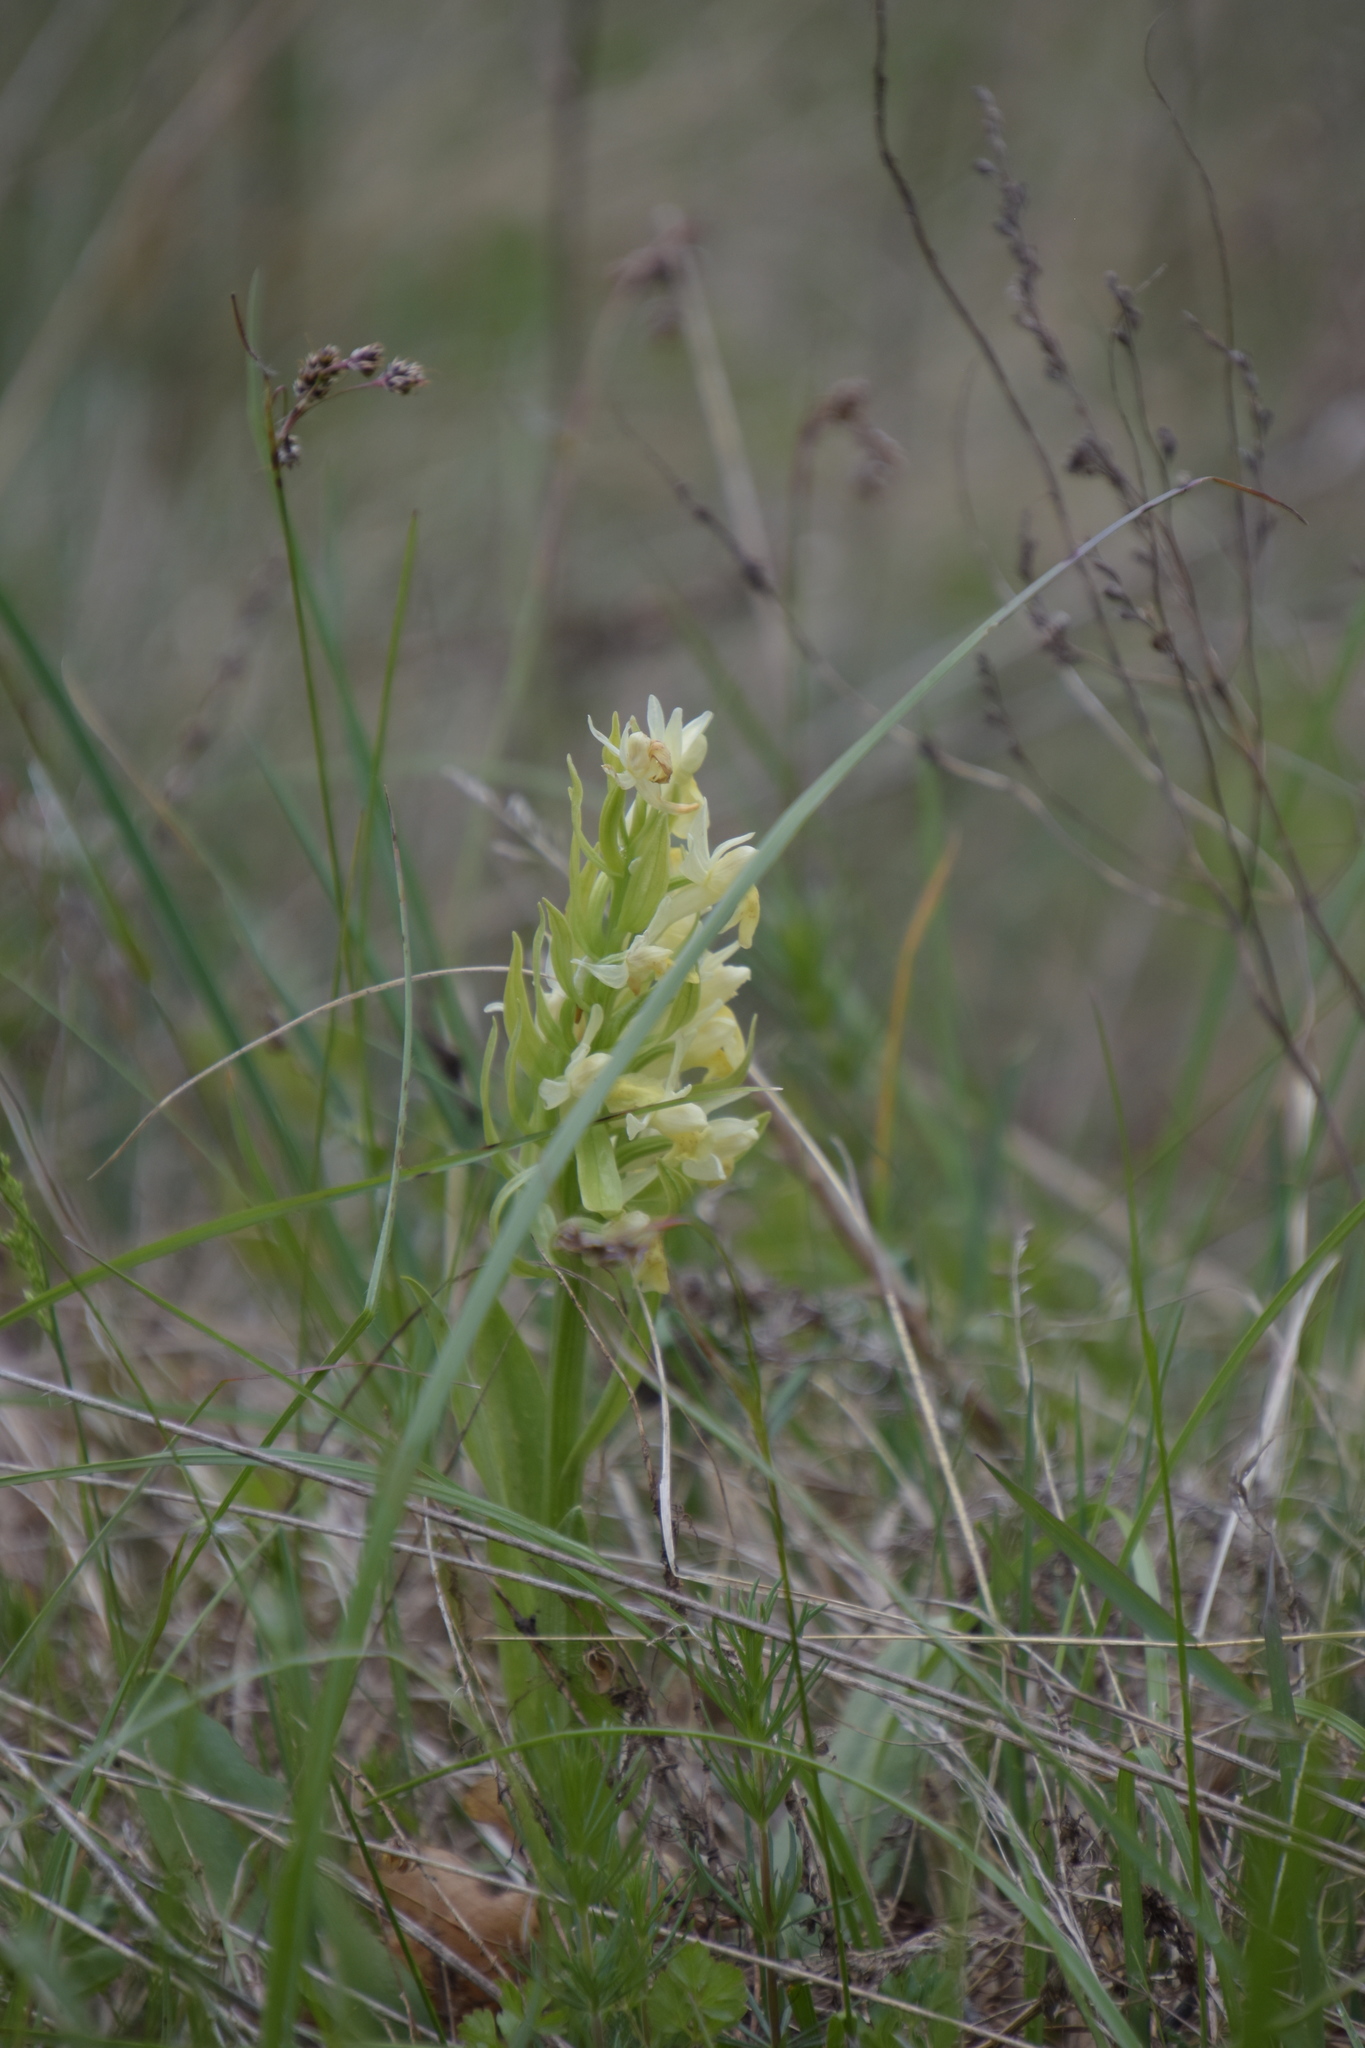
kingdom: Plantae
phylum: Tracheophyta
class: Liliopsida
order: Asparagales
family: Orchidaceae
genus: Dactylorhiza
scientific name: Dactylorhiza sambucina
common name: Elder-flowered orchid
